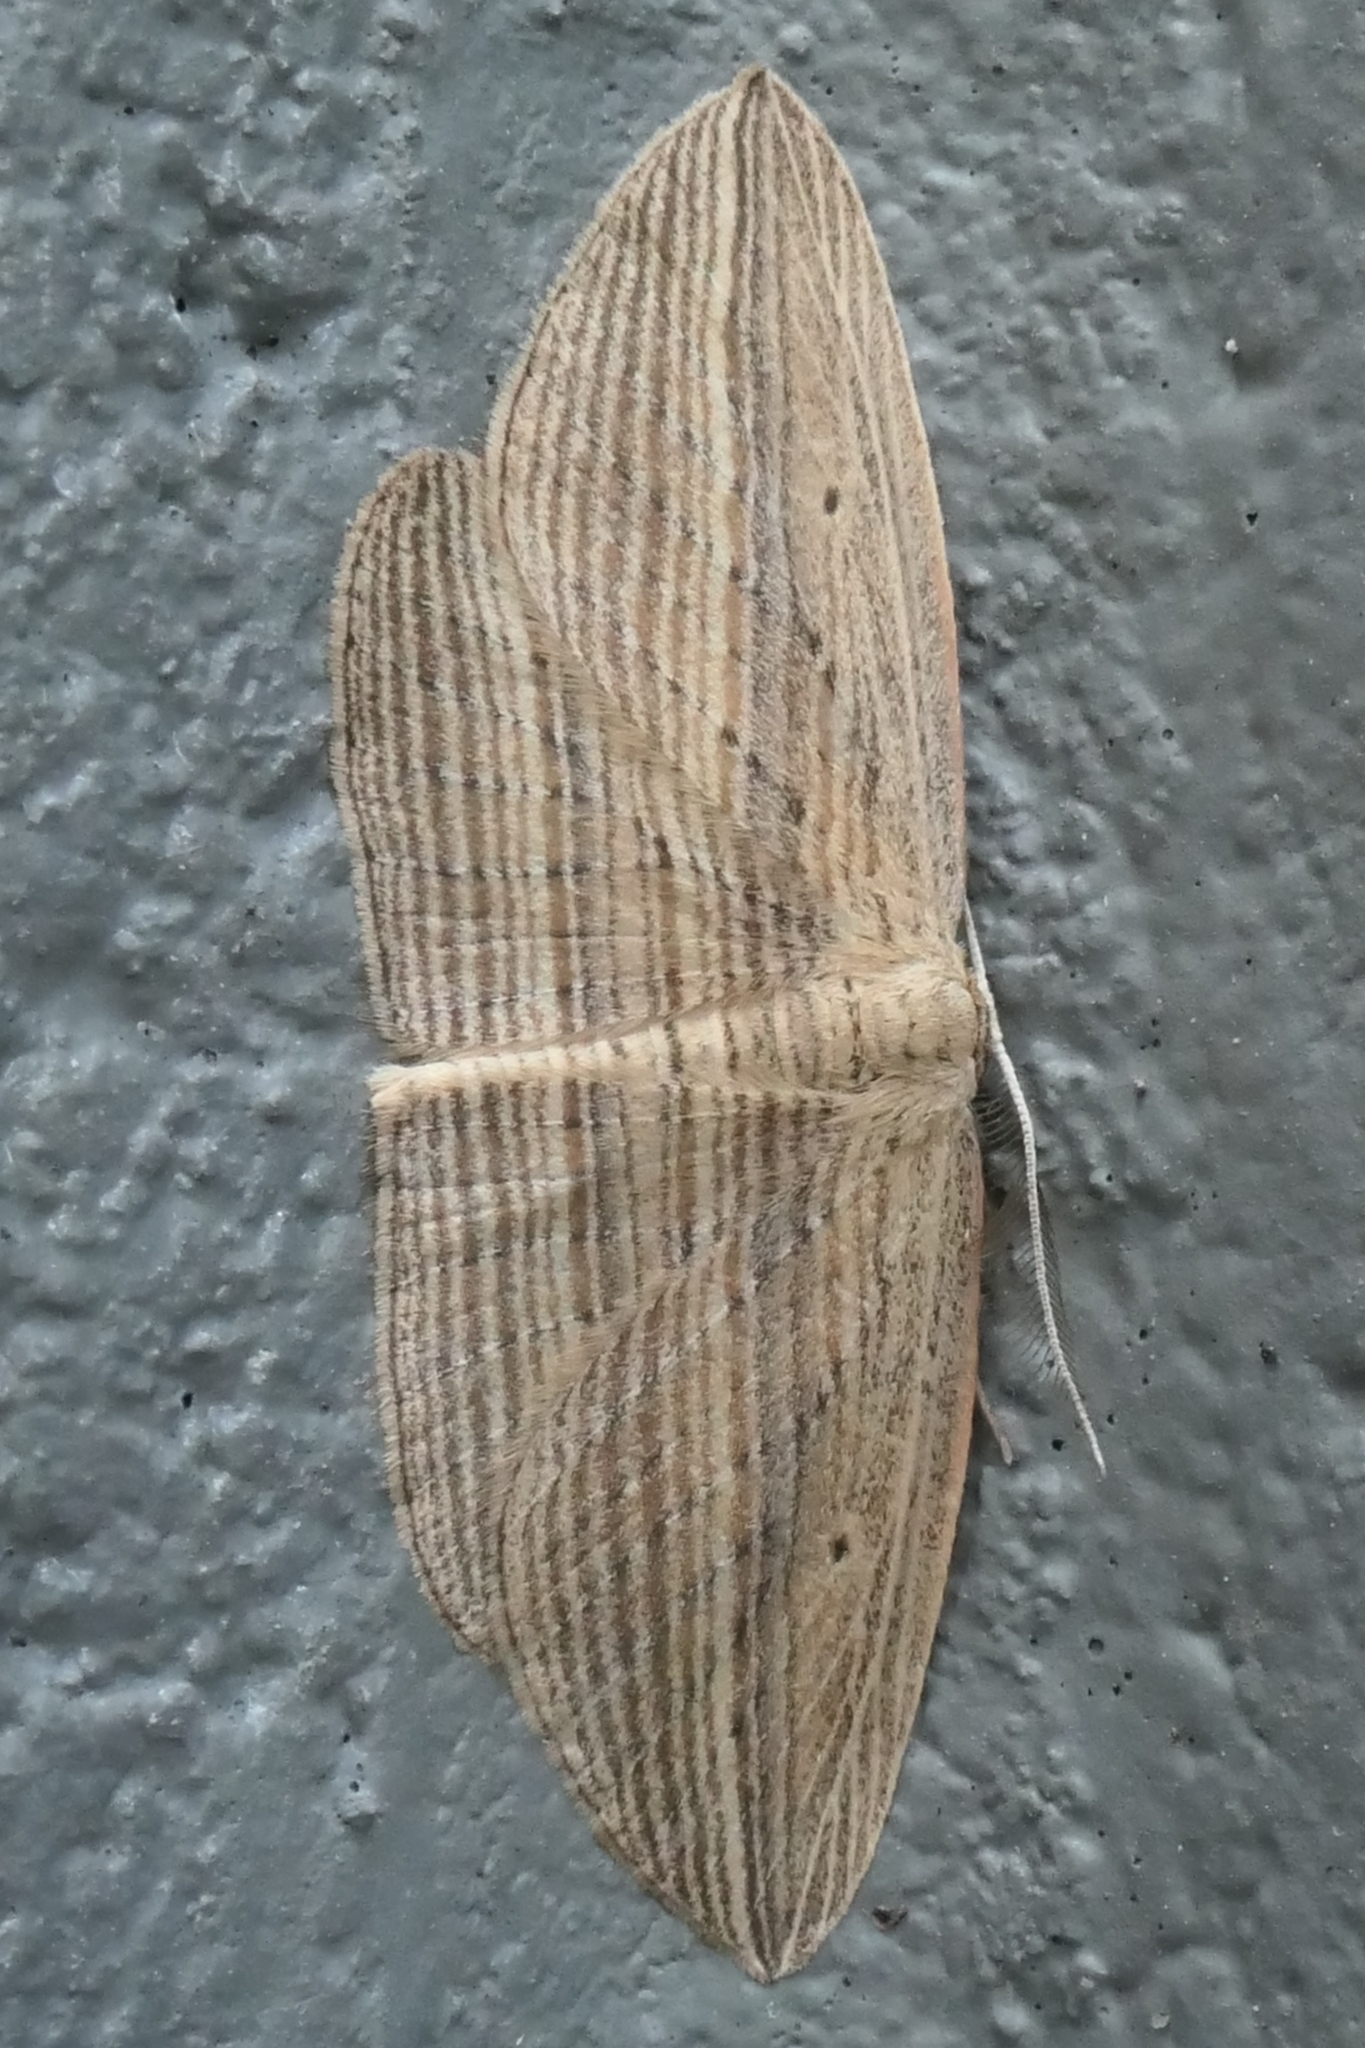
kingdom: Animalia
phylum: Arthropoda
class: Insecta
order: Lepidoptera
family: Geometridae
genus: Epiphryne
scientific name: Epiphryne verriculata
